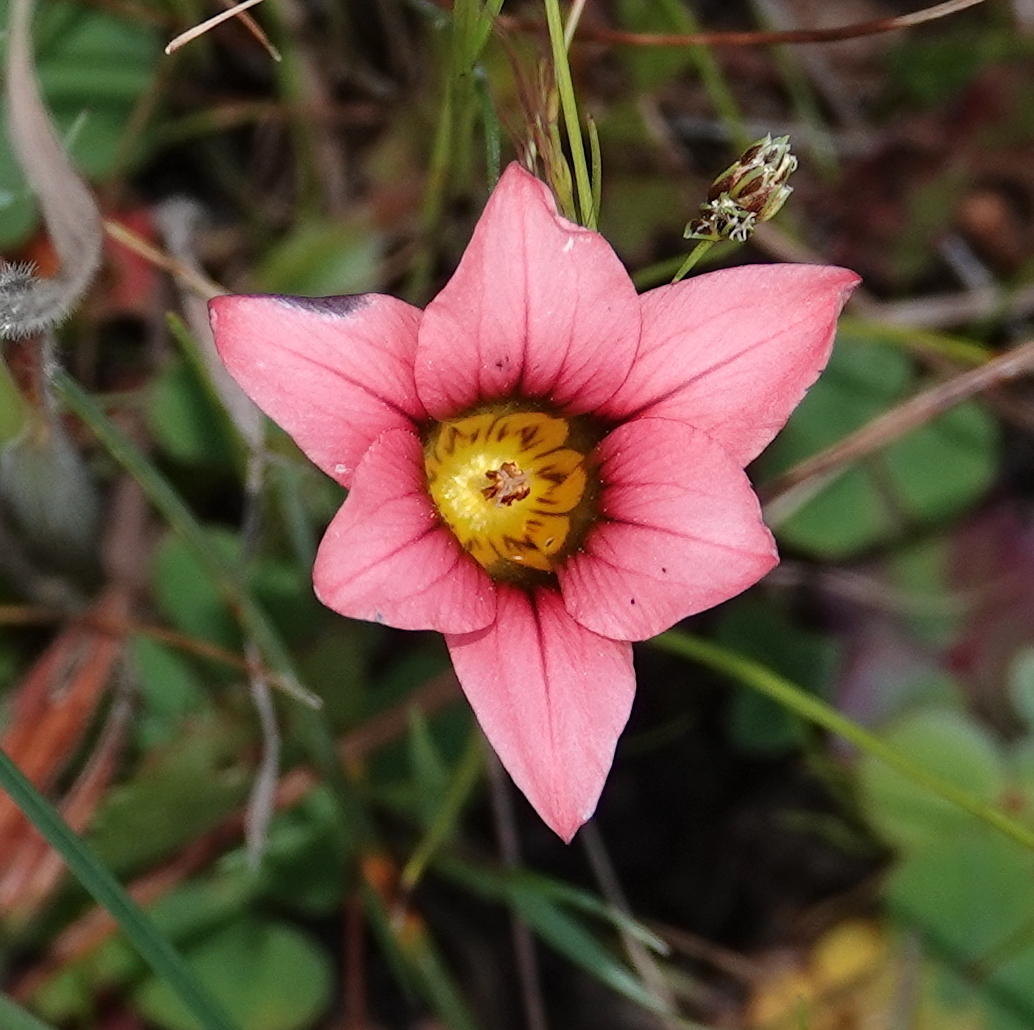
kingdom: Plantae
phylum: Tracheophyta
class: Liliopsida
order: Asparagales
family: Iridaceae
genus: Romulea
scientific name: Romulea hirsuta
